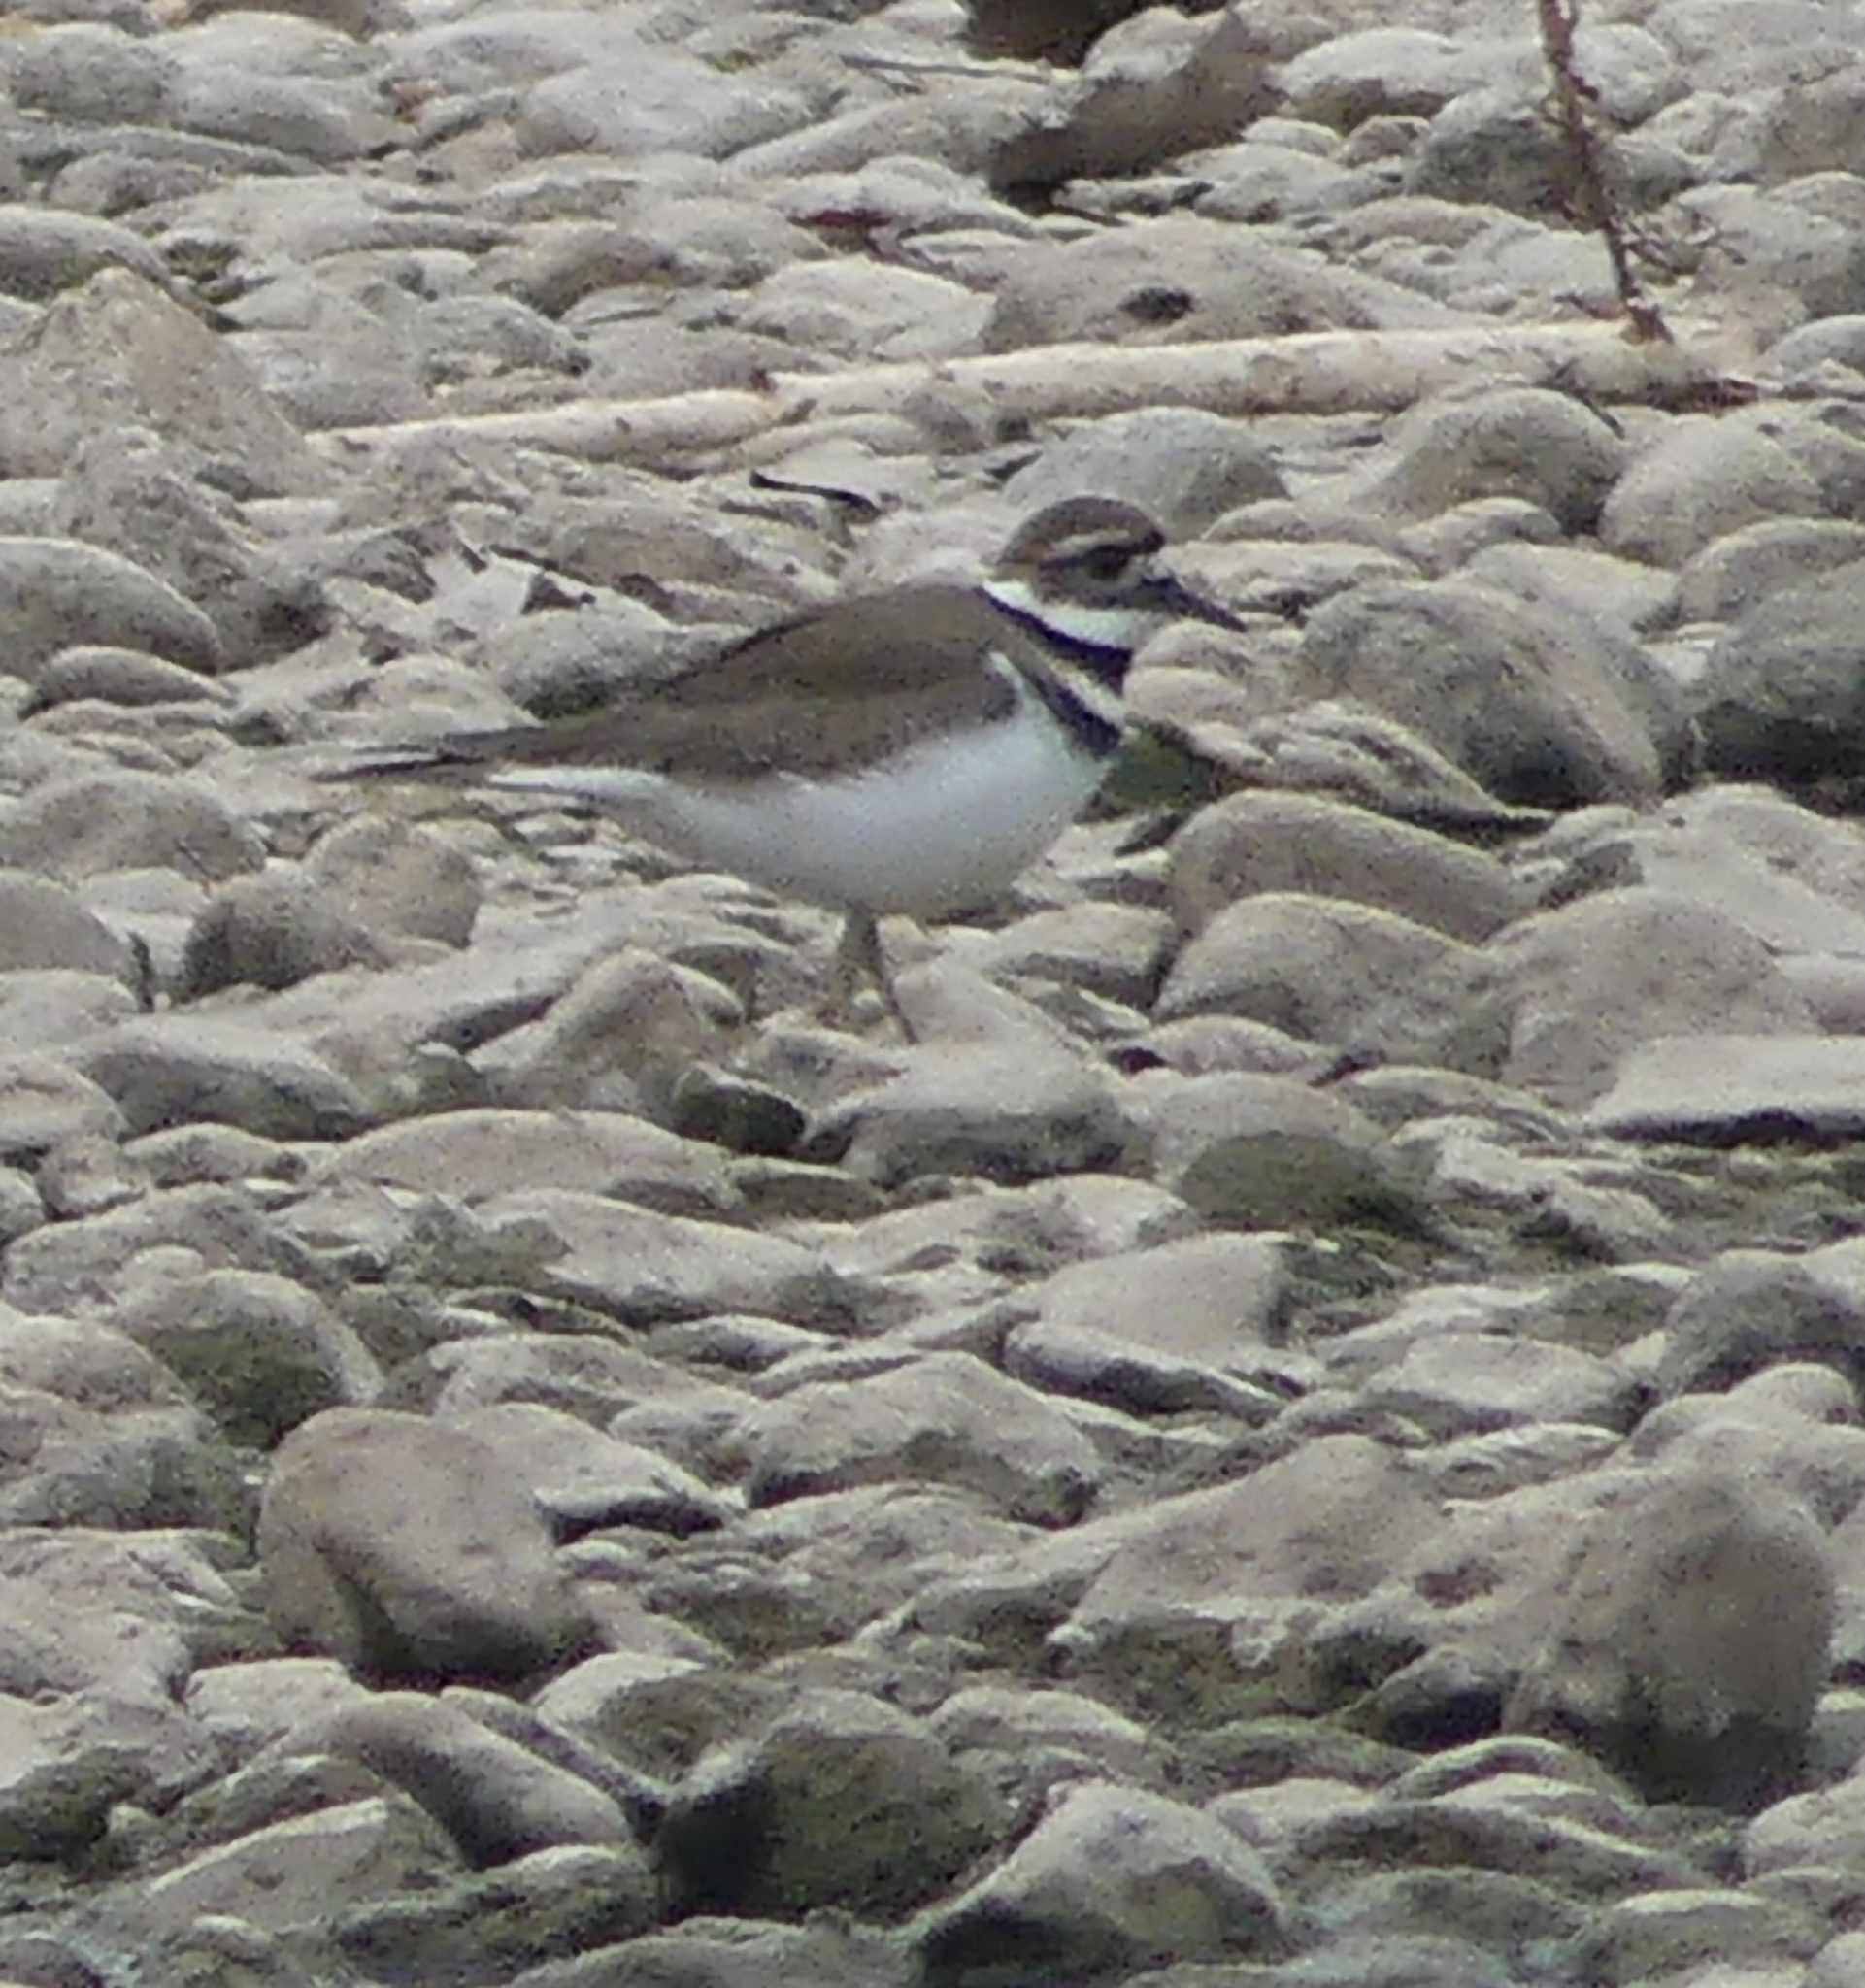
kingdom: Animalia
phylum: Chordata
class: Aves
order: Charadriiformes
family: Charadriidae
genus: Charadrius
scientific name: Charadrius vociferus
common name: Killdeer
